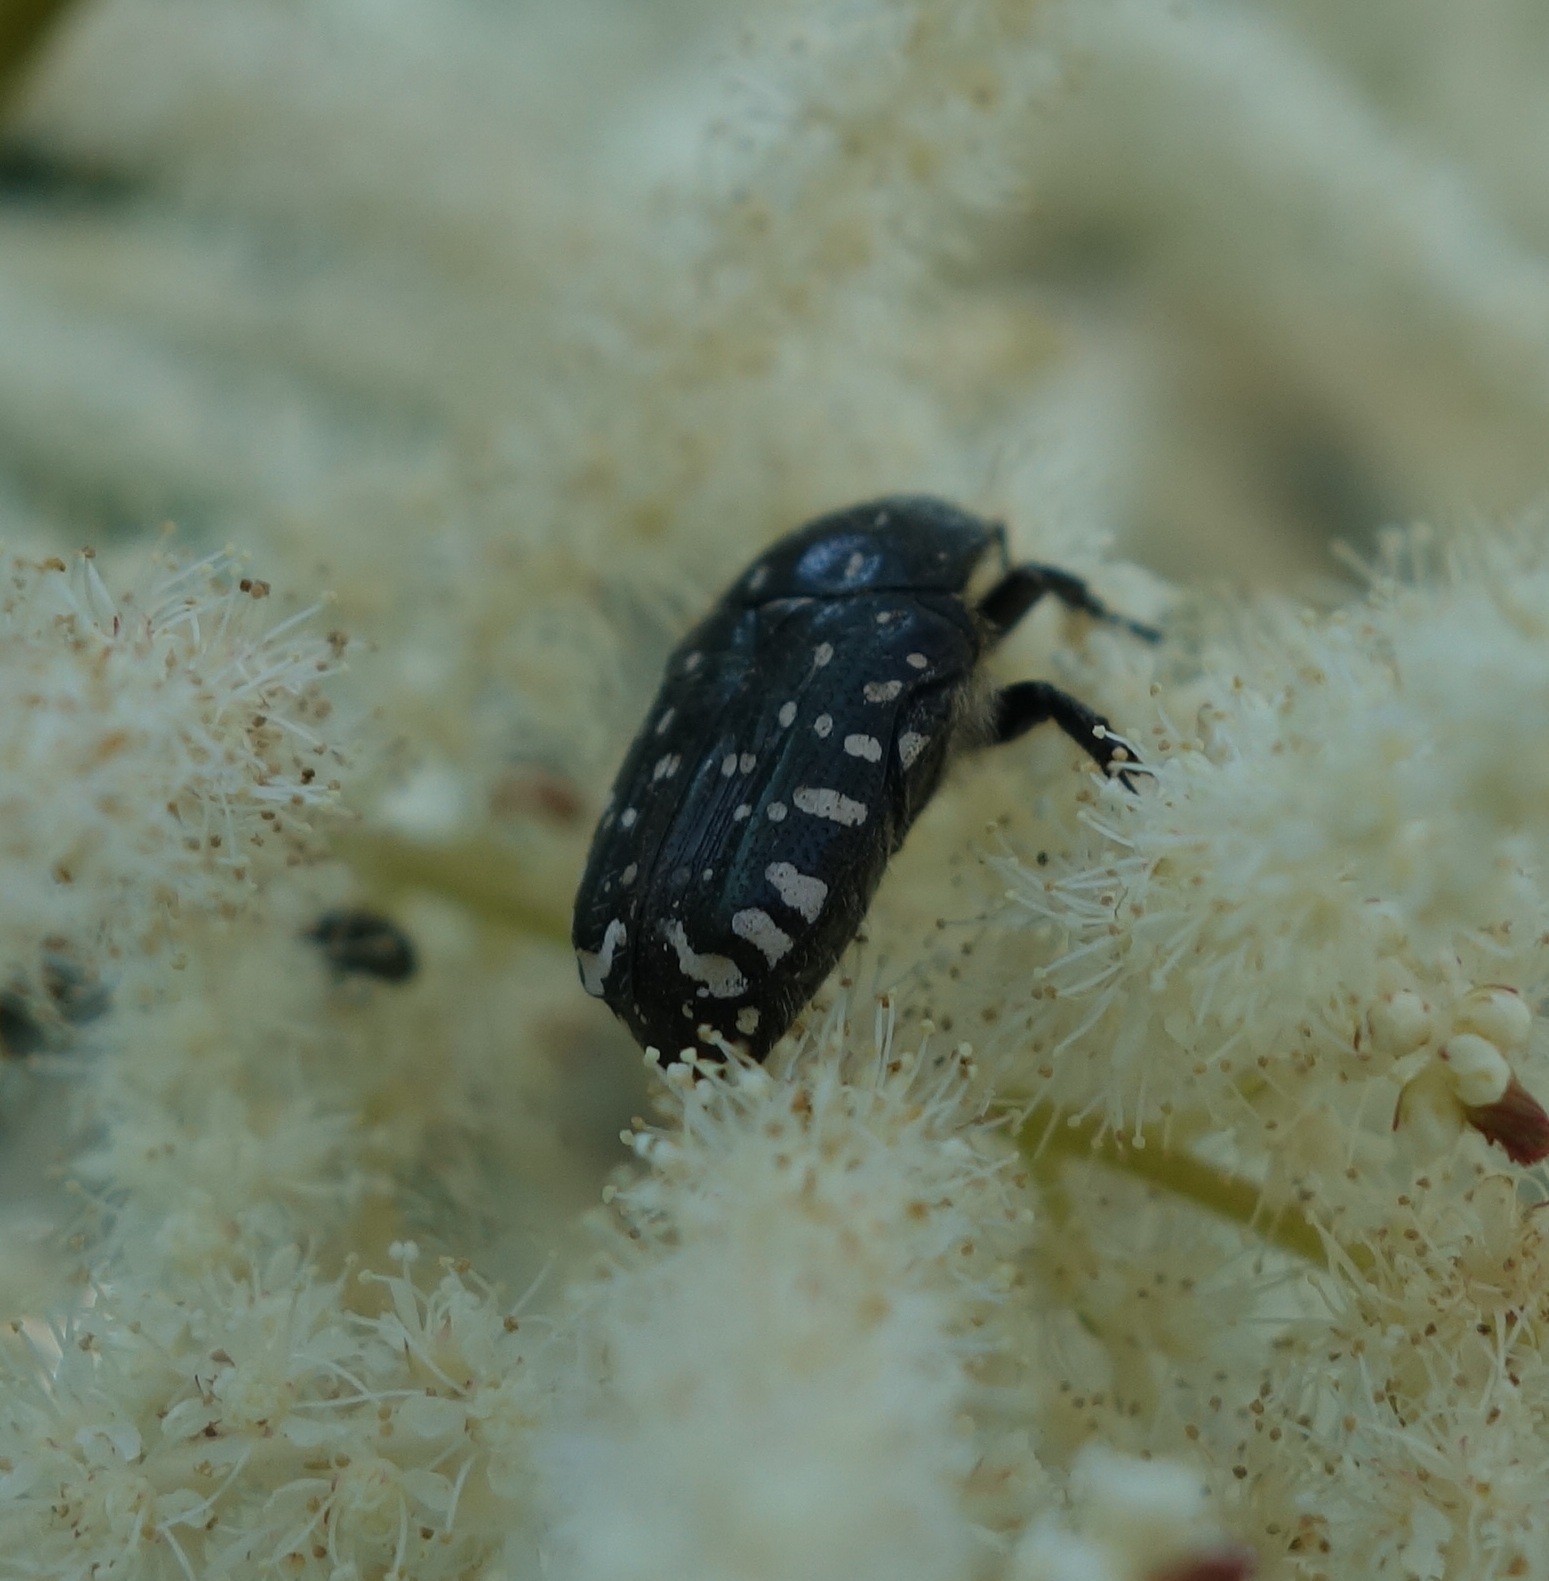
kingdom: Animalia
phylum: Arthropoda
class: Insecta
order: Coleoptera
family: Scarabaeidae
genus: Oxythyrea
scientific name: Oxythyrea funesta
